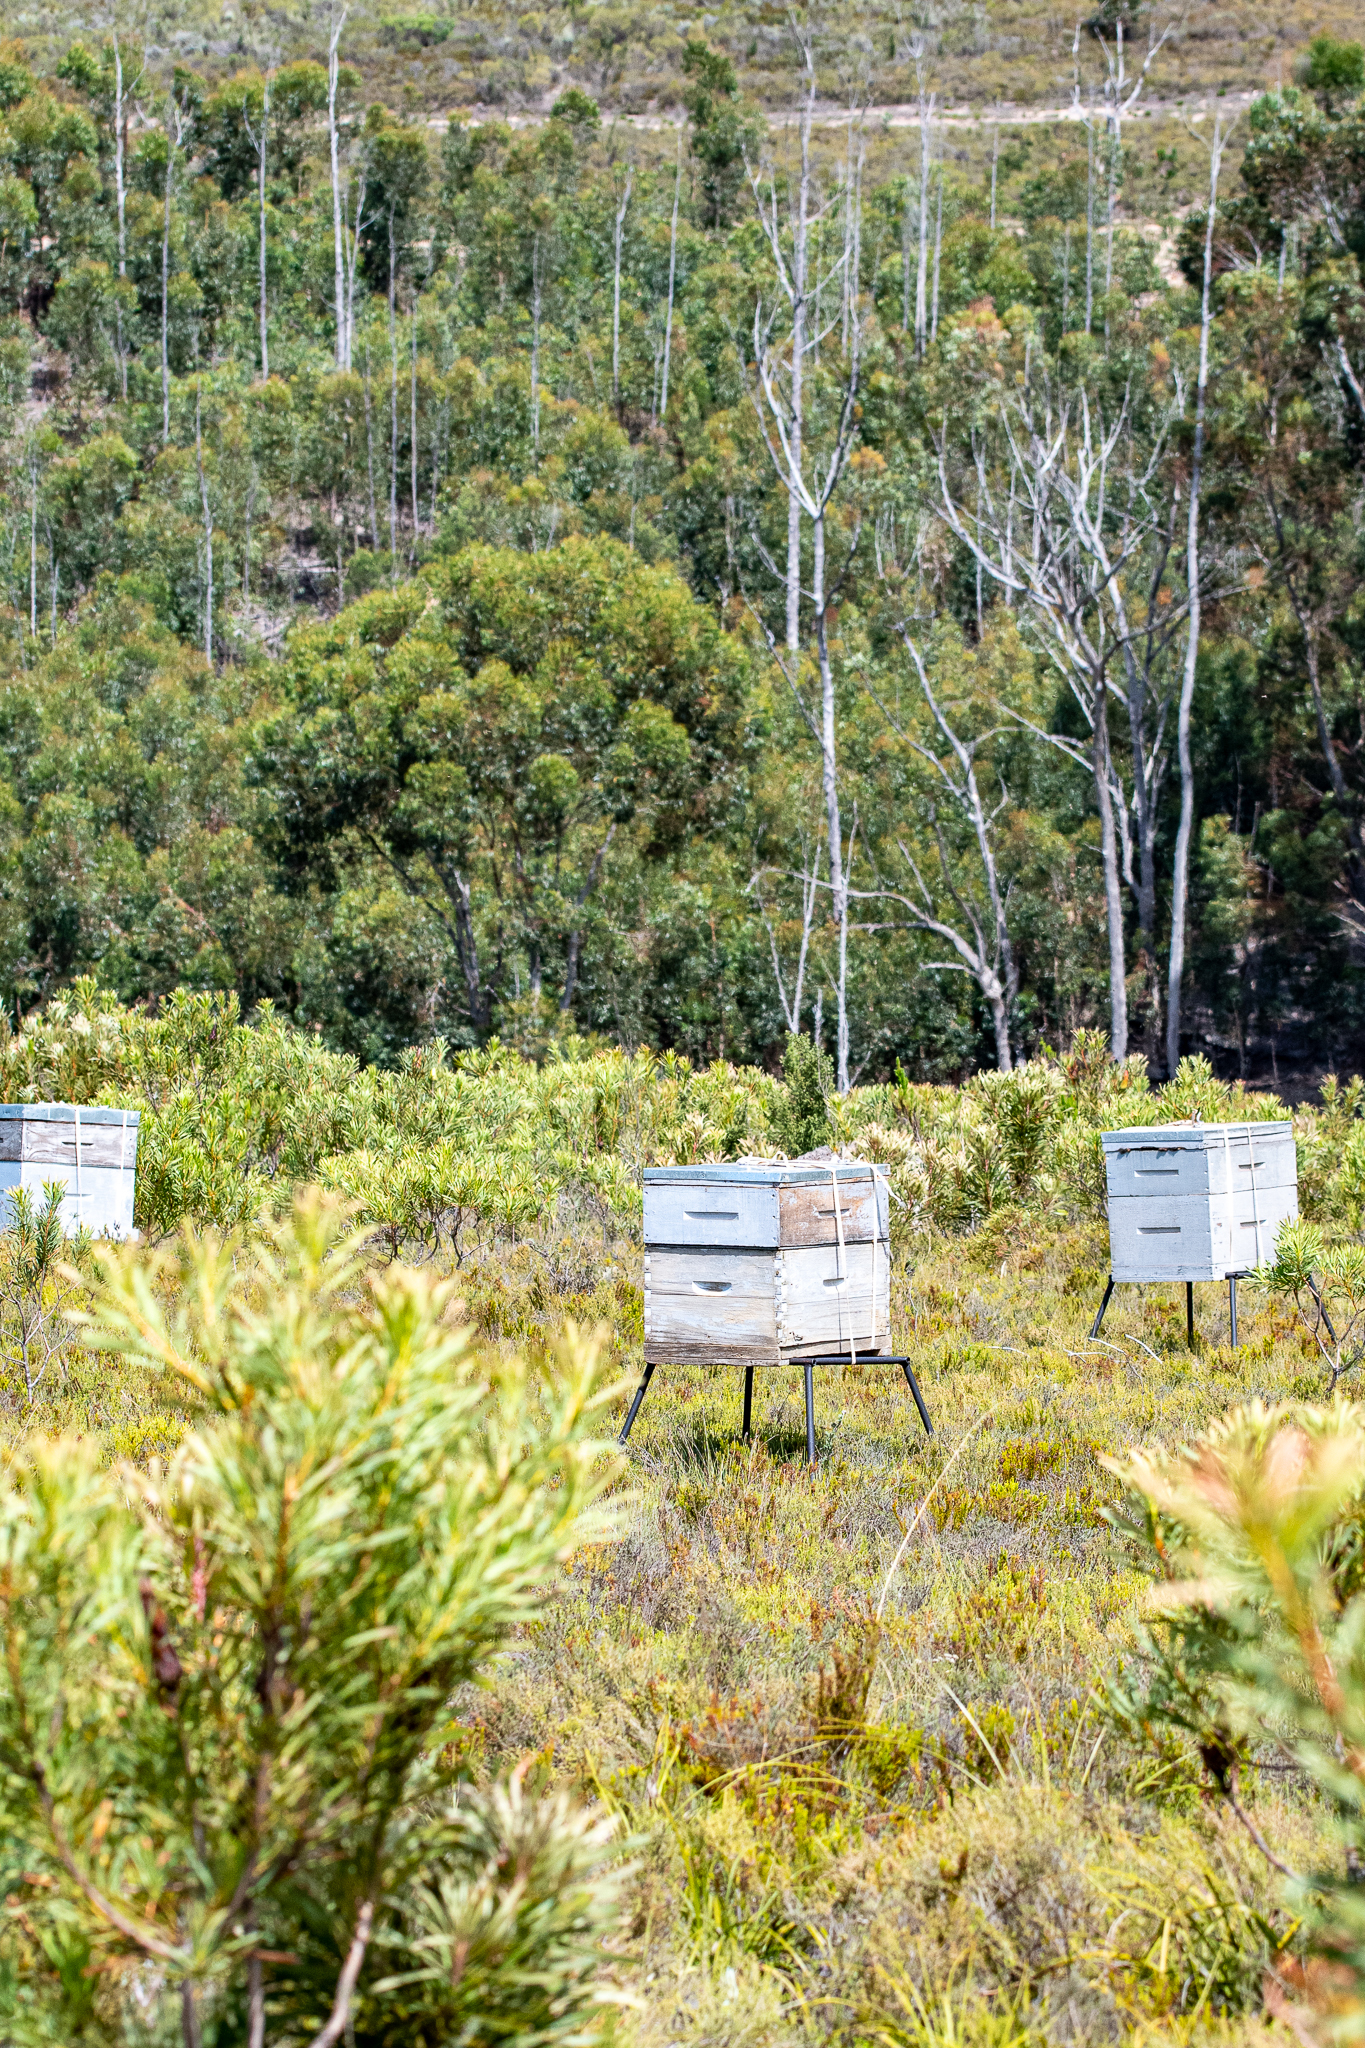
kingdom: Animalia
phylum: Arthropoda
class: Insecta
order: Hymenoptera
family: Apidae
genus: Apis
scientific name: Apis mellifera
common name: Honey bee
